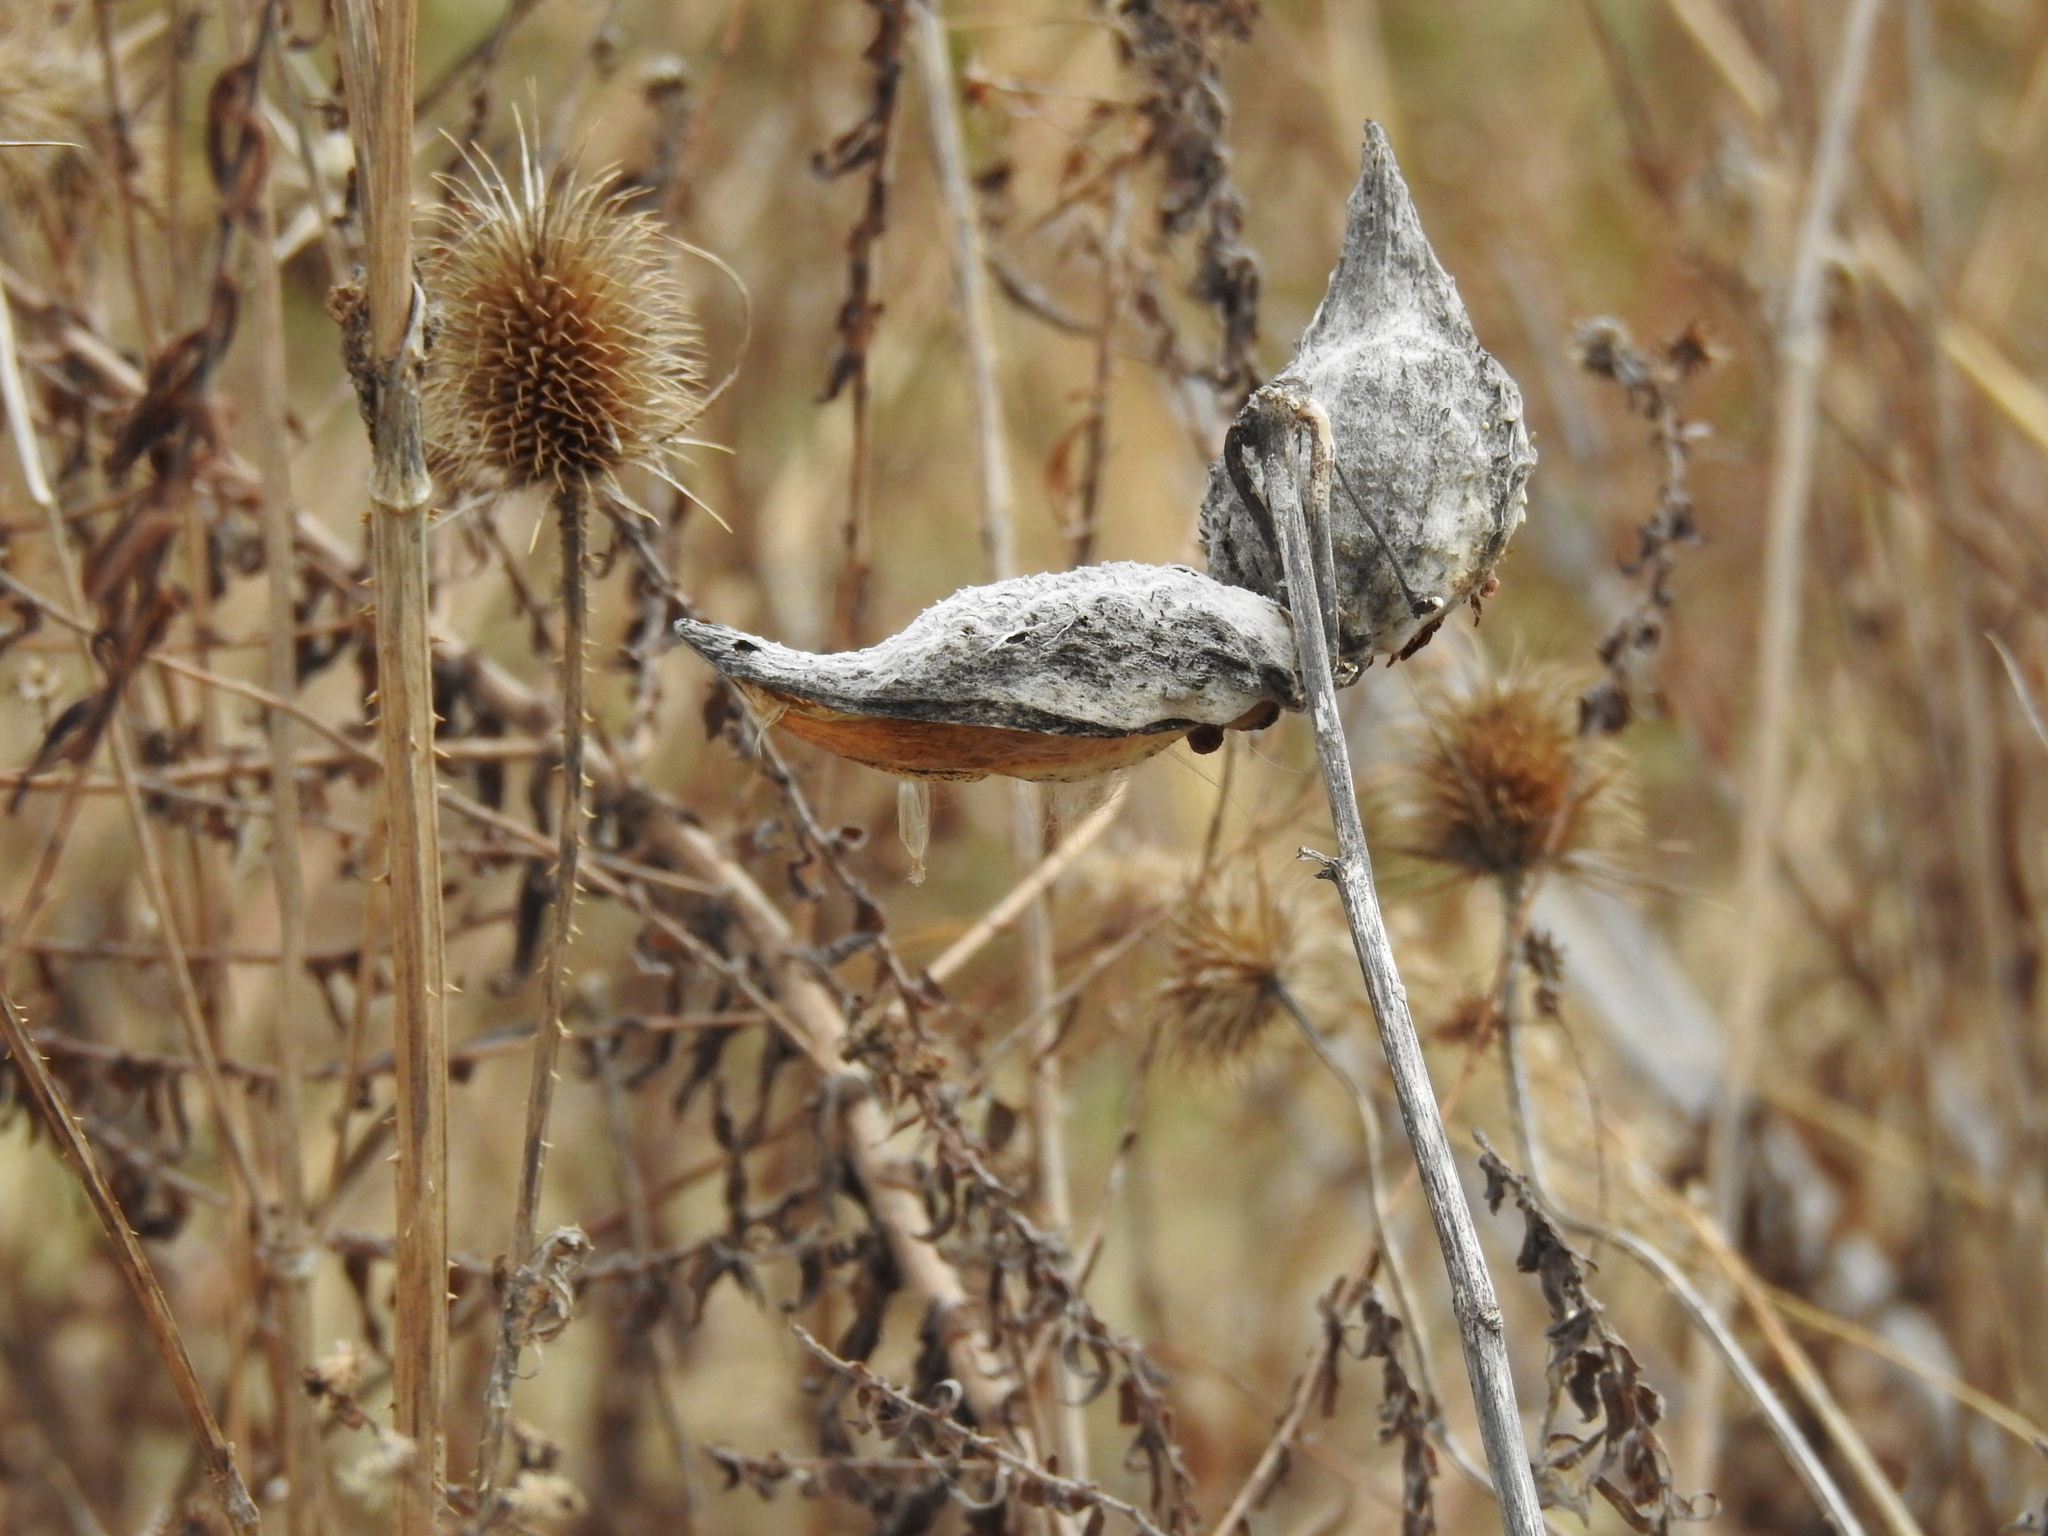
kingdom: Plantae
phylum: Tracheophyta
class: Magnoliopsida
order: Gentianales
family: Apocynaceae
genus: Asclepias
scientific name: Asclepias syriaca
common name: Common milkweed
